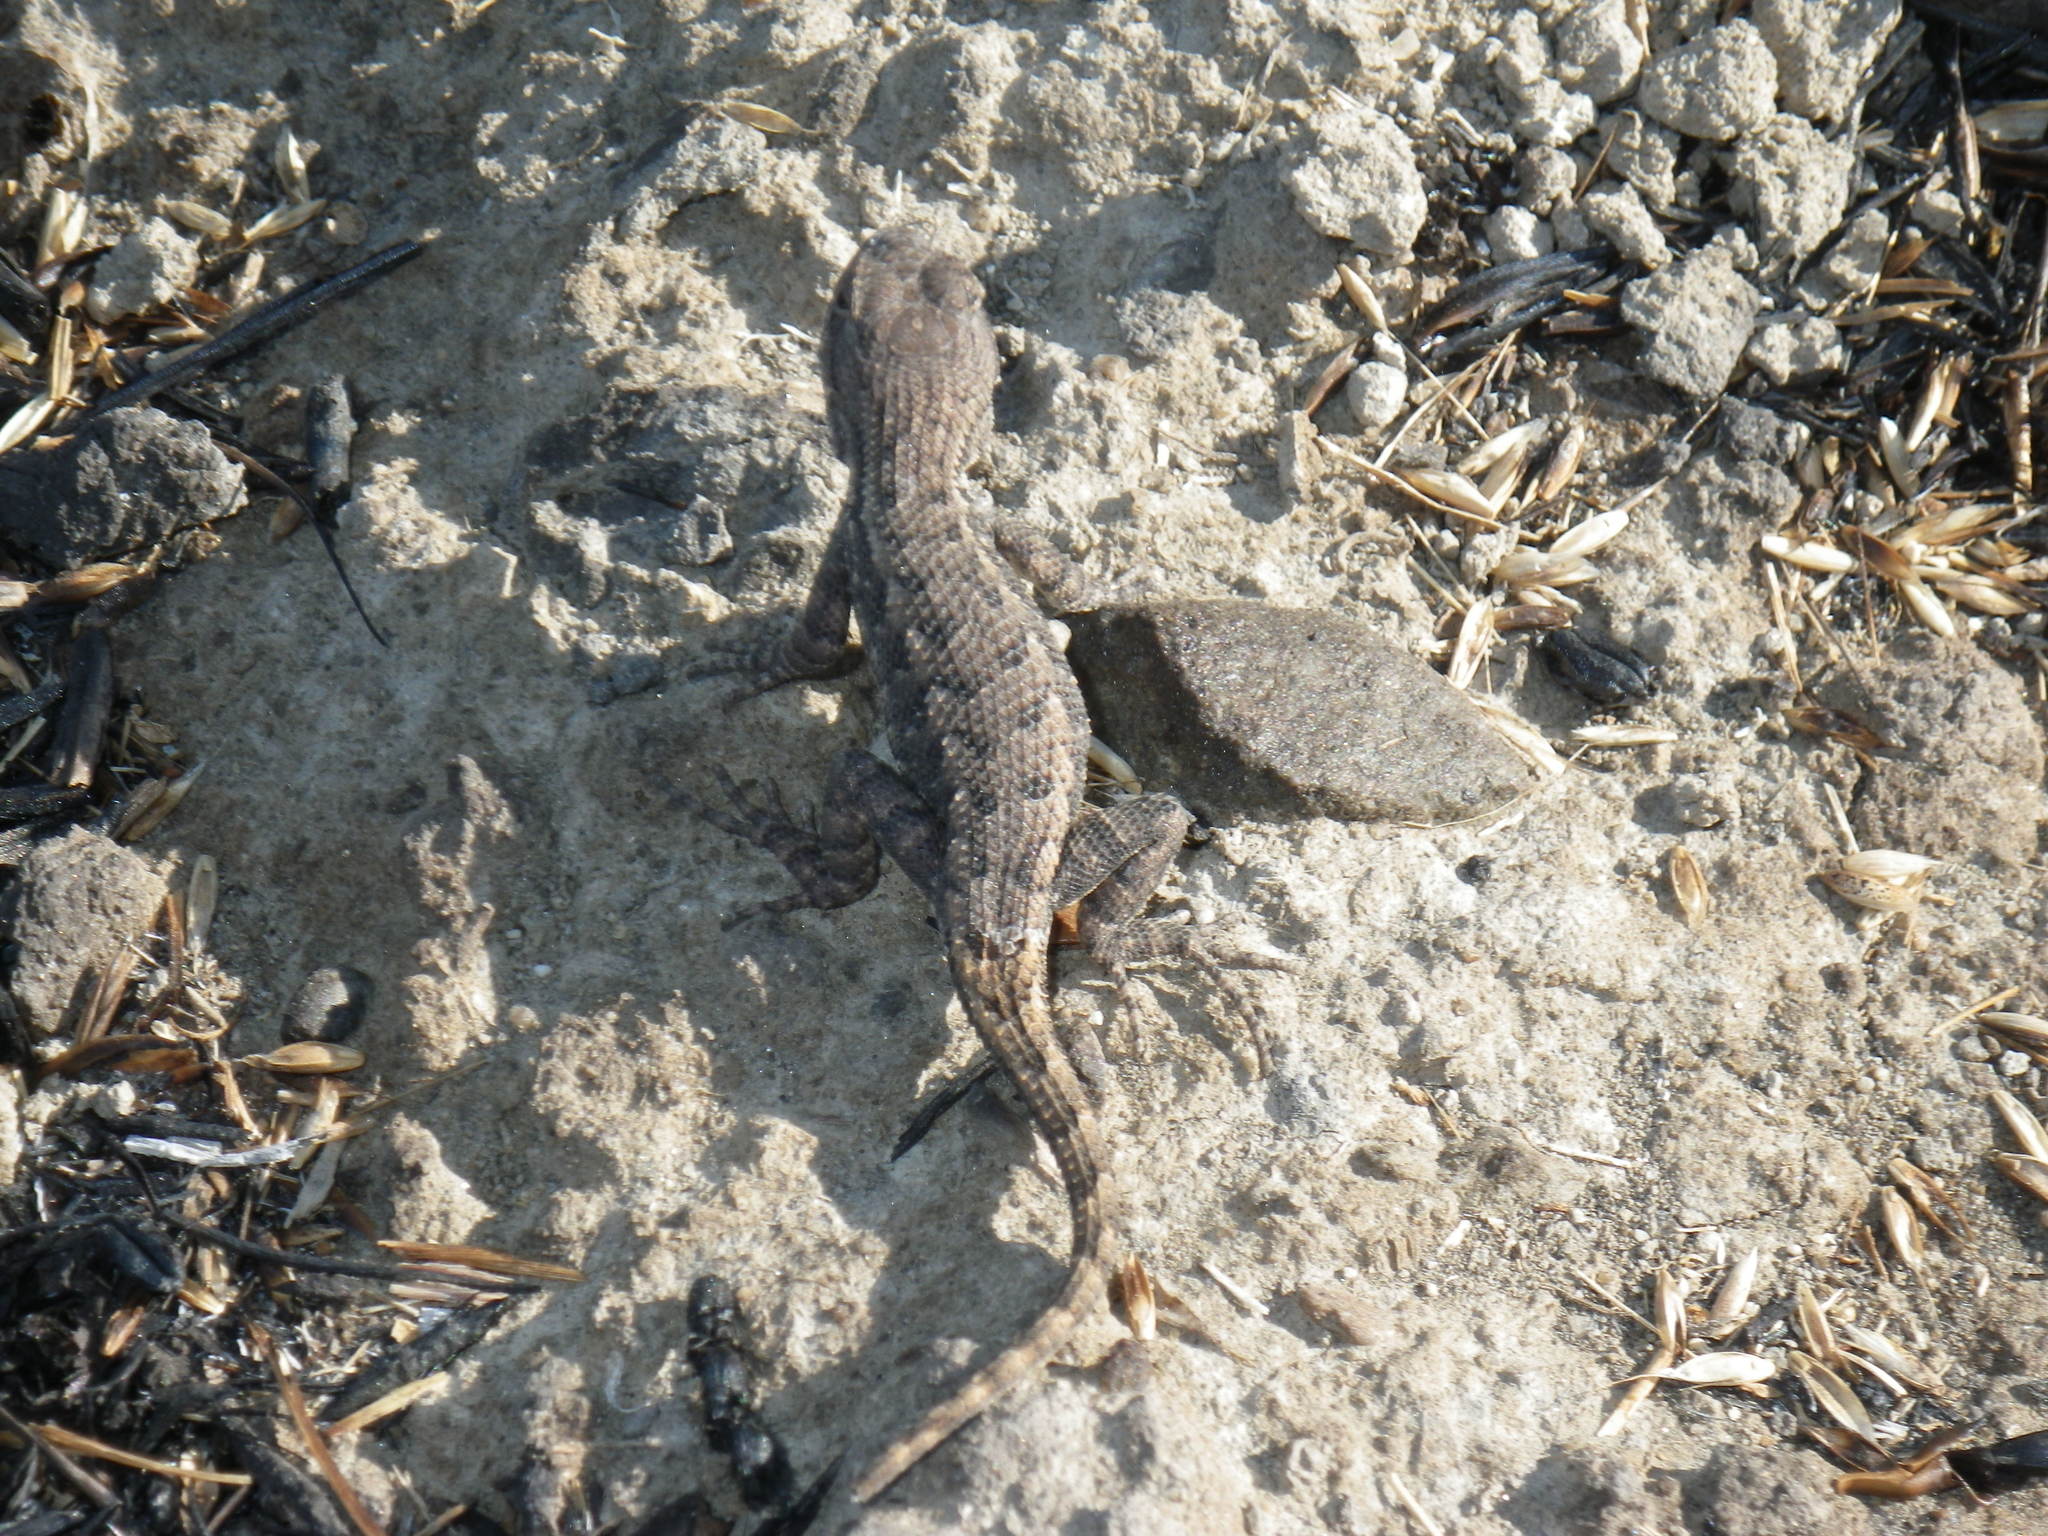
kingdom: Animalia
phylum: Chordata
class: Squamata
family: Phrynosomatidae
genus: Sceloporus
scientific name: Sceloporus occidentalis
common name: Western fence lizard
